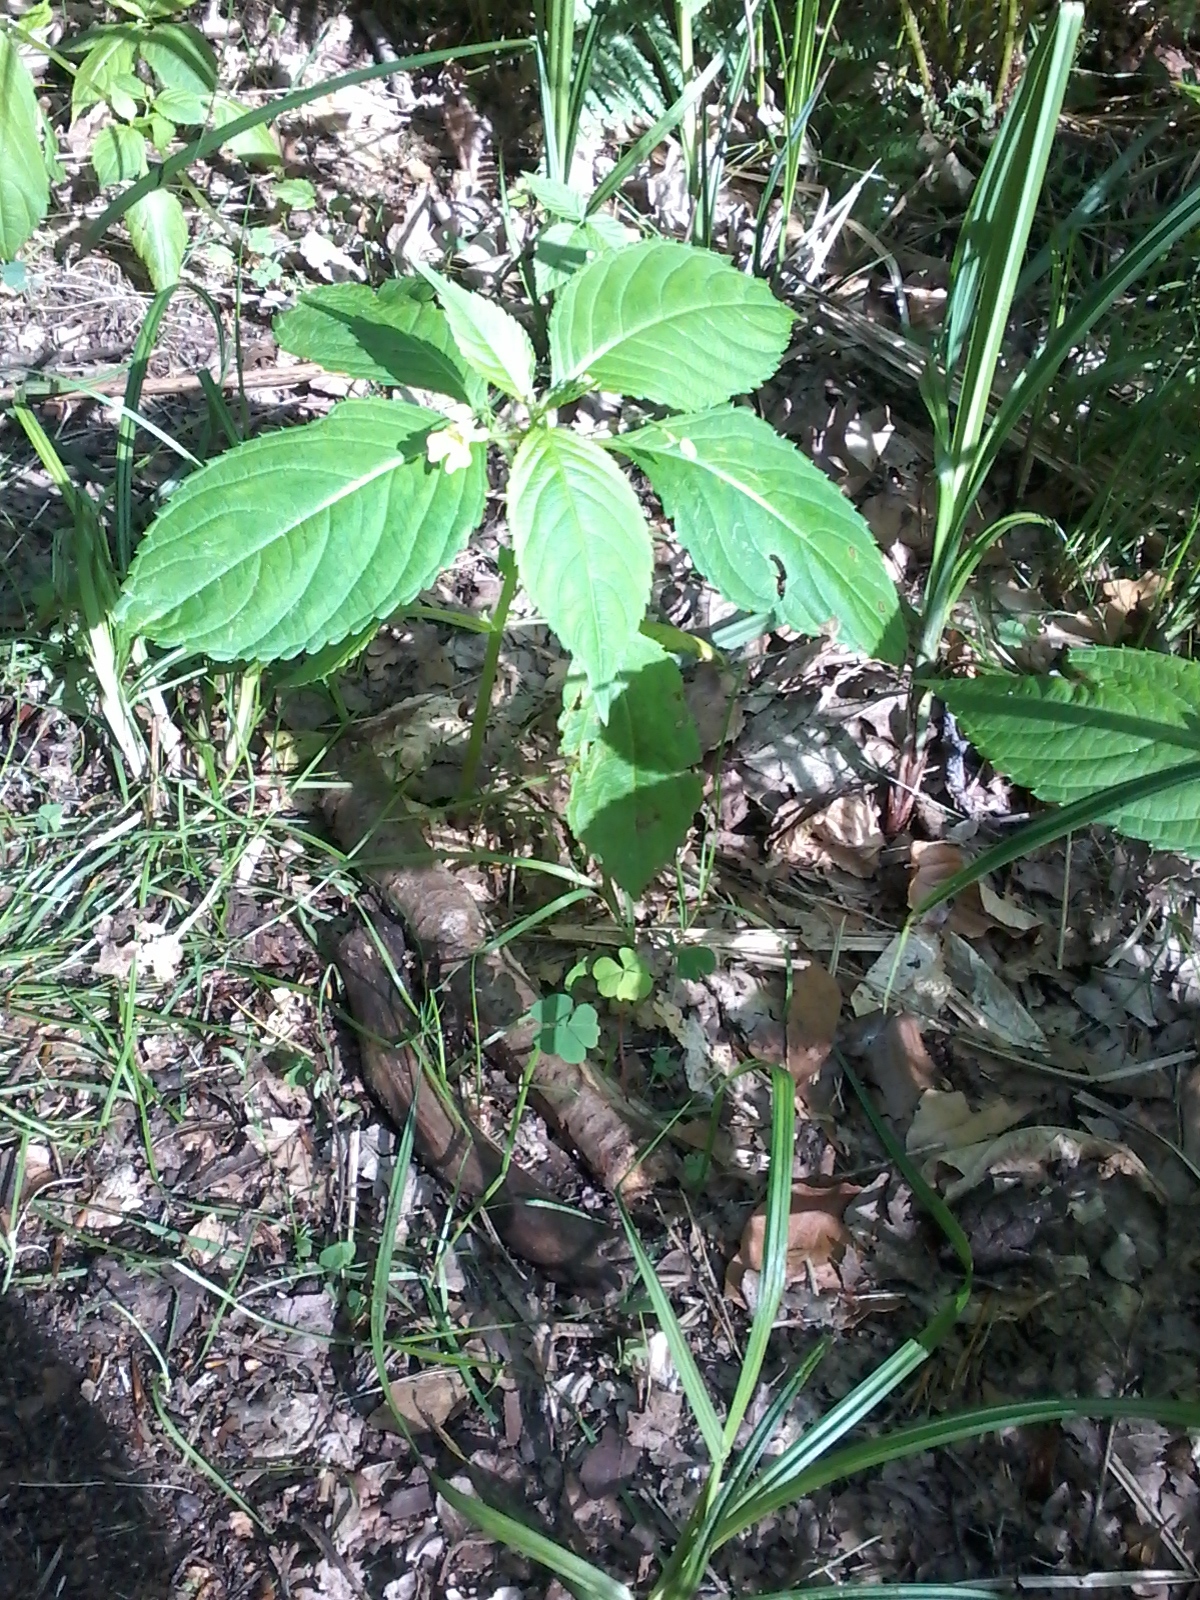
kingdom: Plantae
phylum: Tracheophyta
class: Magnoliopsida
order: Ericales
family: Balsaminaceae
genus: Impatiens
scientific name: Impatiens parviflora
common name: Small balsam
